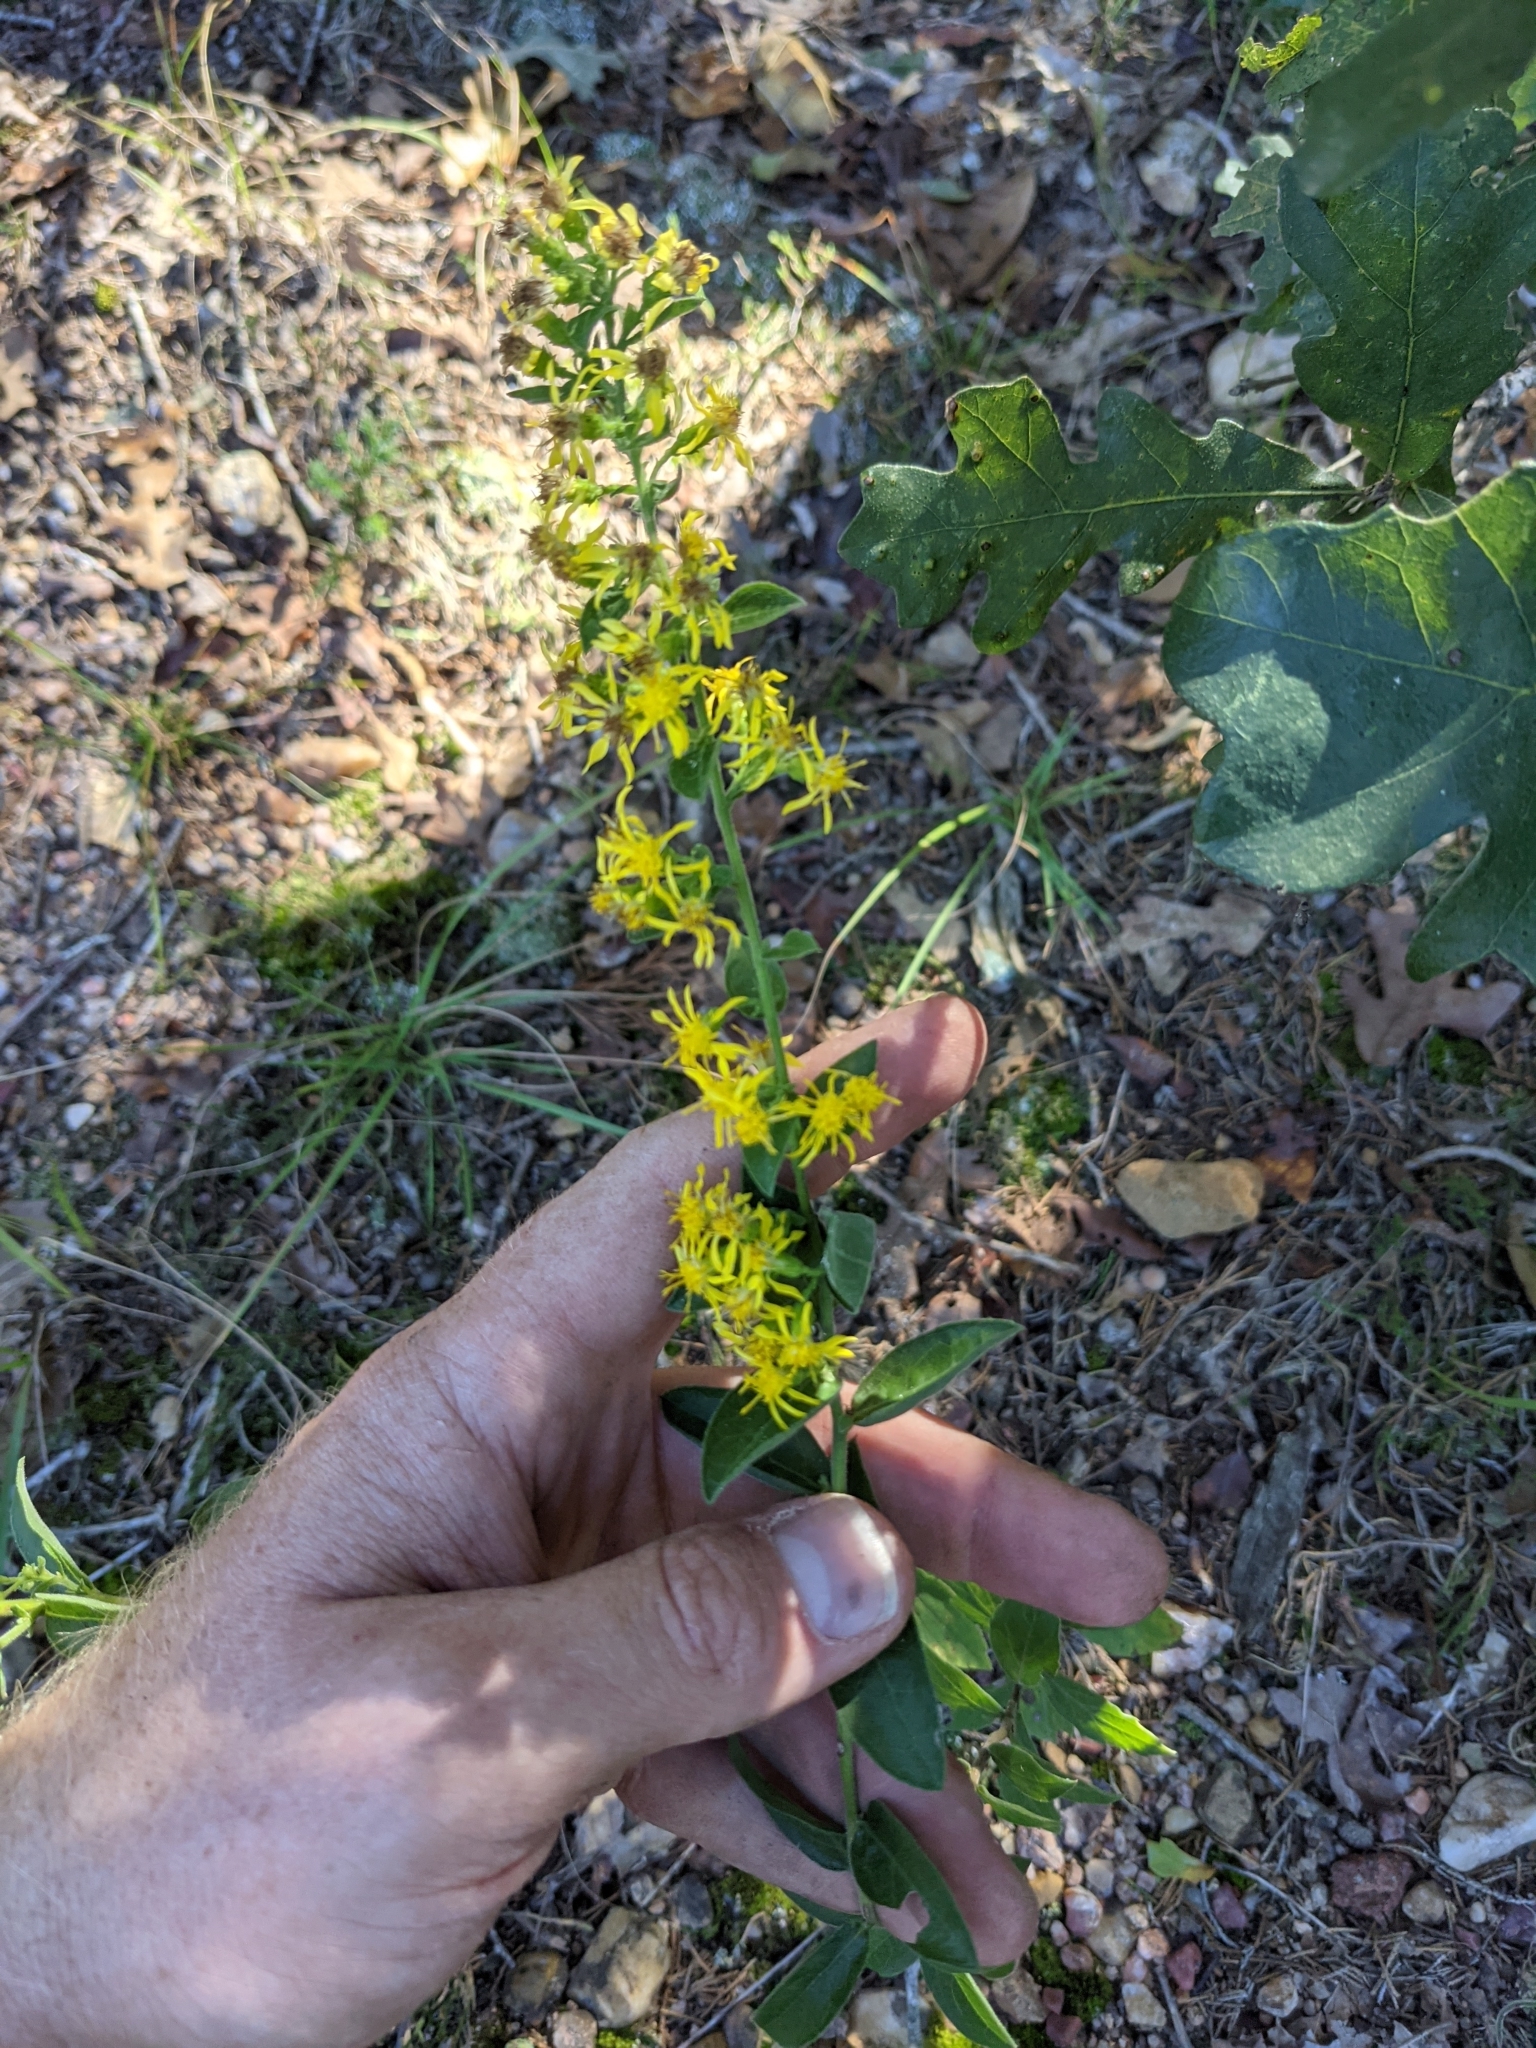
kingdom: Plantae
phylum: Tracheophyta
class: Magnoliopsida
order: Asterales
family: Asteraceae
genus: Solidago
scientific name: Solidago petiolaris
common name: Downy ragged goldenrod
